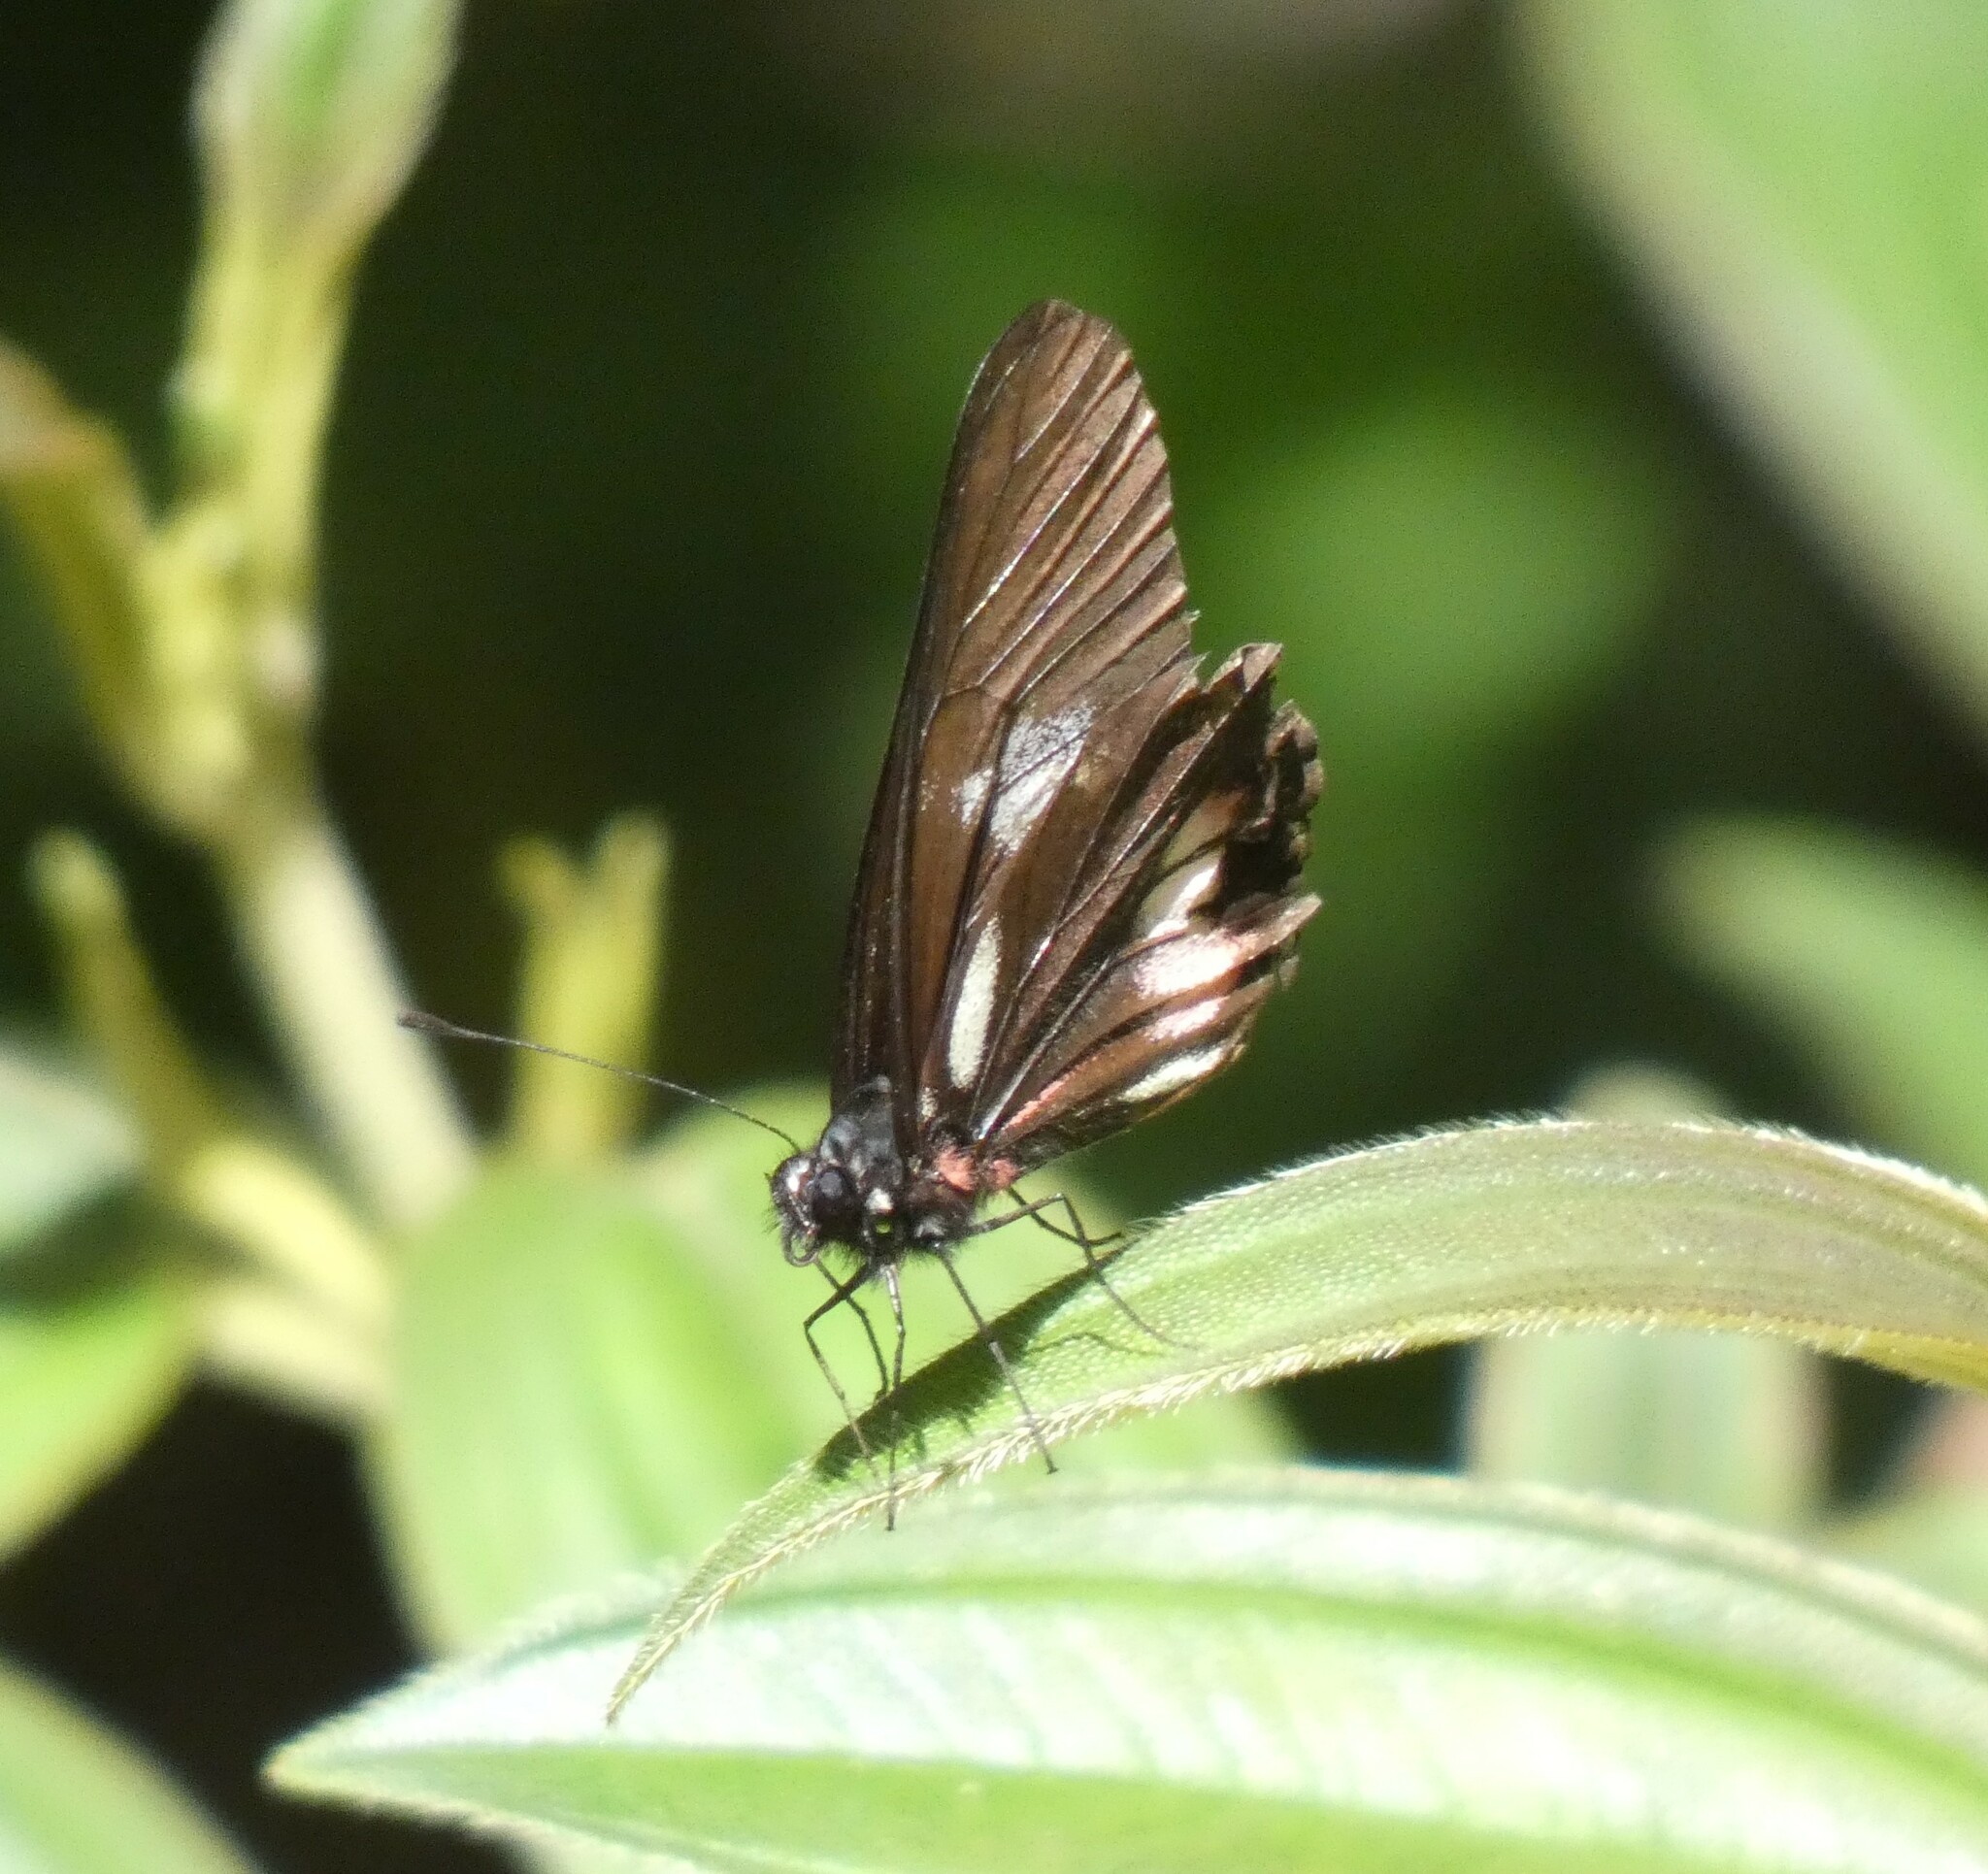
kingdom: Animalia
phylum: Arthropoda
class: Insecta
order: Lepidoptera
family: Pieridae
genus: Archonias
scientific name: Archonias brassolis
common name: Cattleheart white
